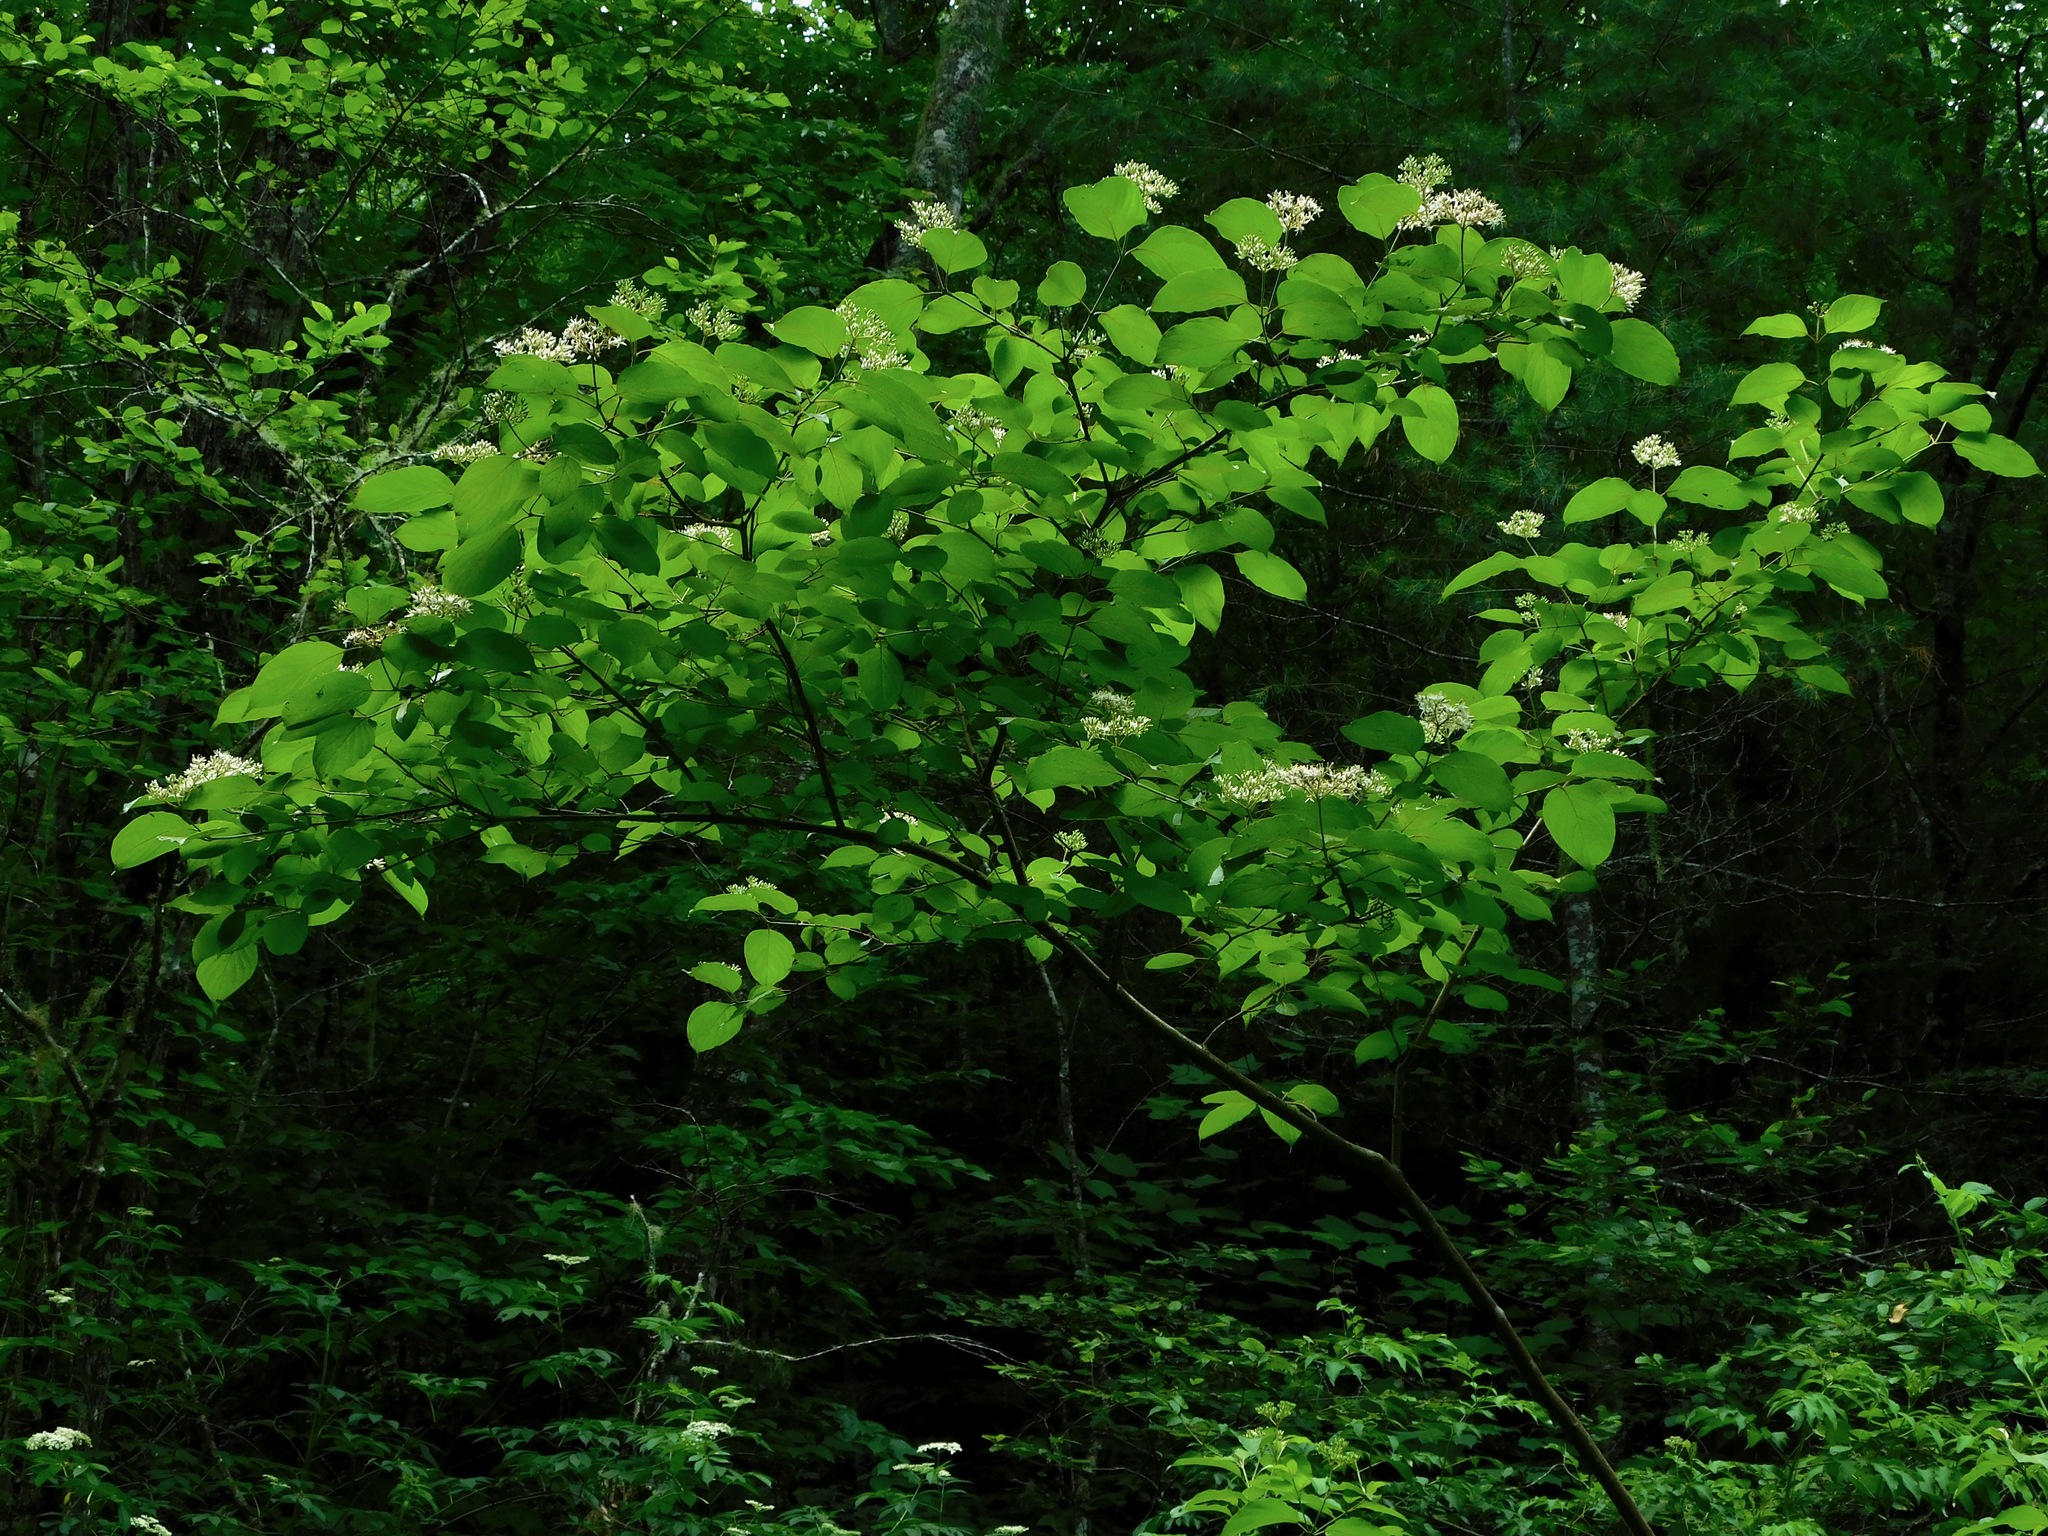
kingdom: Plantae
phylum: Tracheophyta
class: Magnoliopsida
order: Cornales
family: Cornaceae
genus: Cornus
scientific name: Cornus amomum
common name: Silky dogwood
